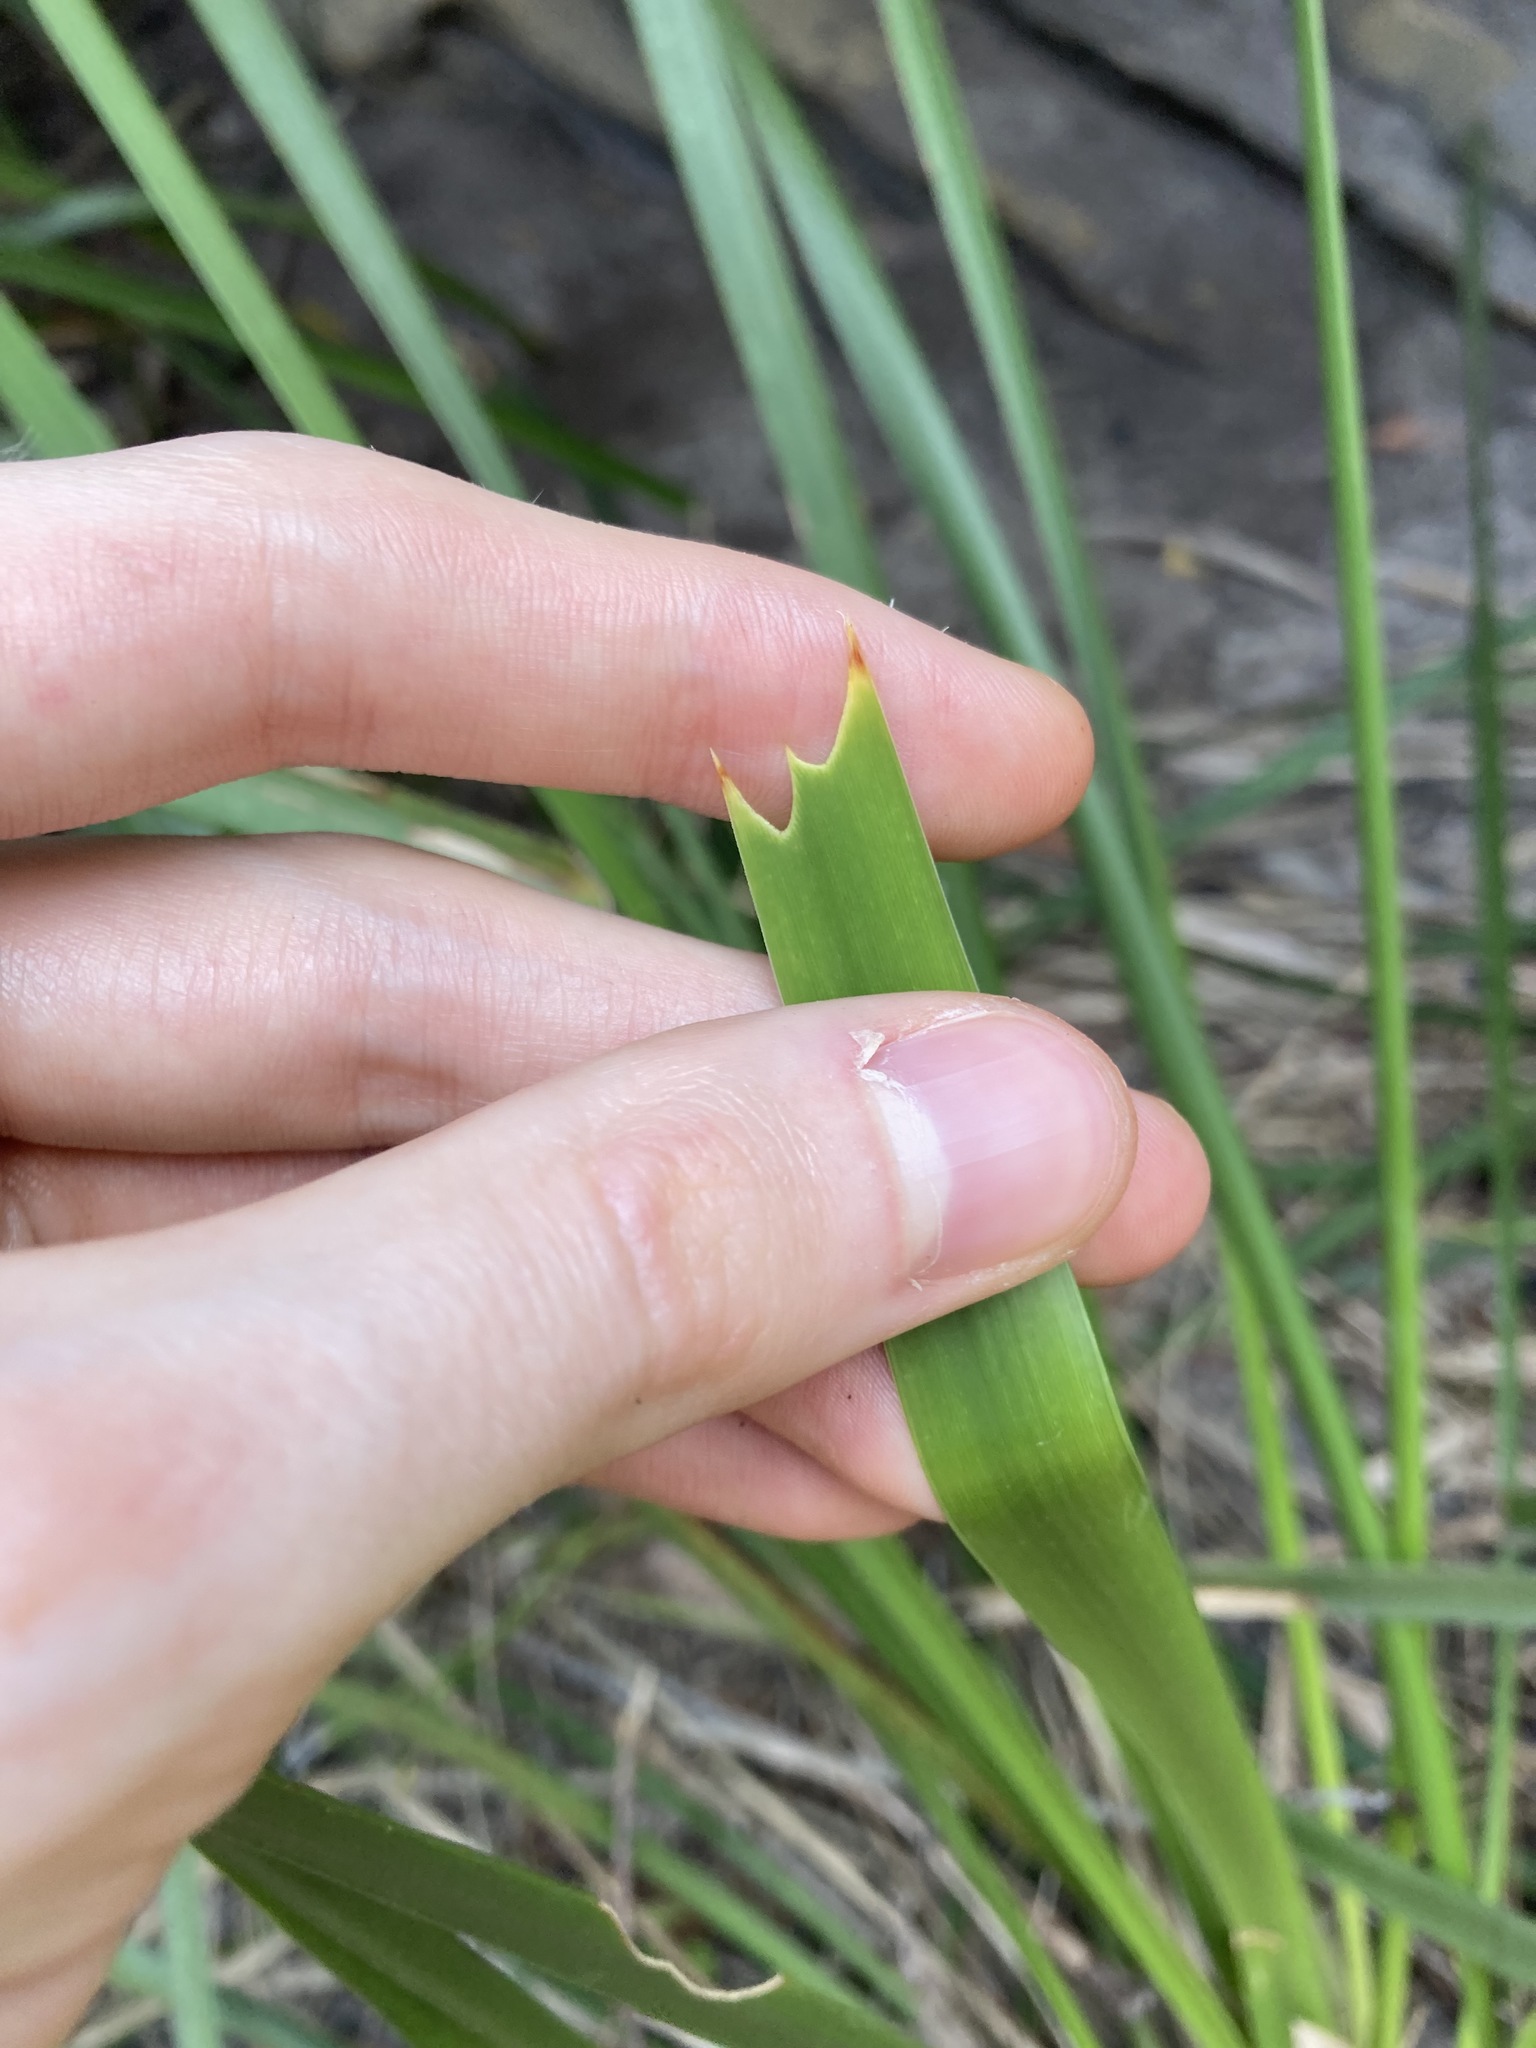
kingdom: Plantae
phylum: Tracheophyta
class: Liliopsida
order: Asparagales
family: Asparagaceae
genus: Lomandra
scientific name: Lomandra longifolia
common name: Longleaf mat-rush
